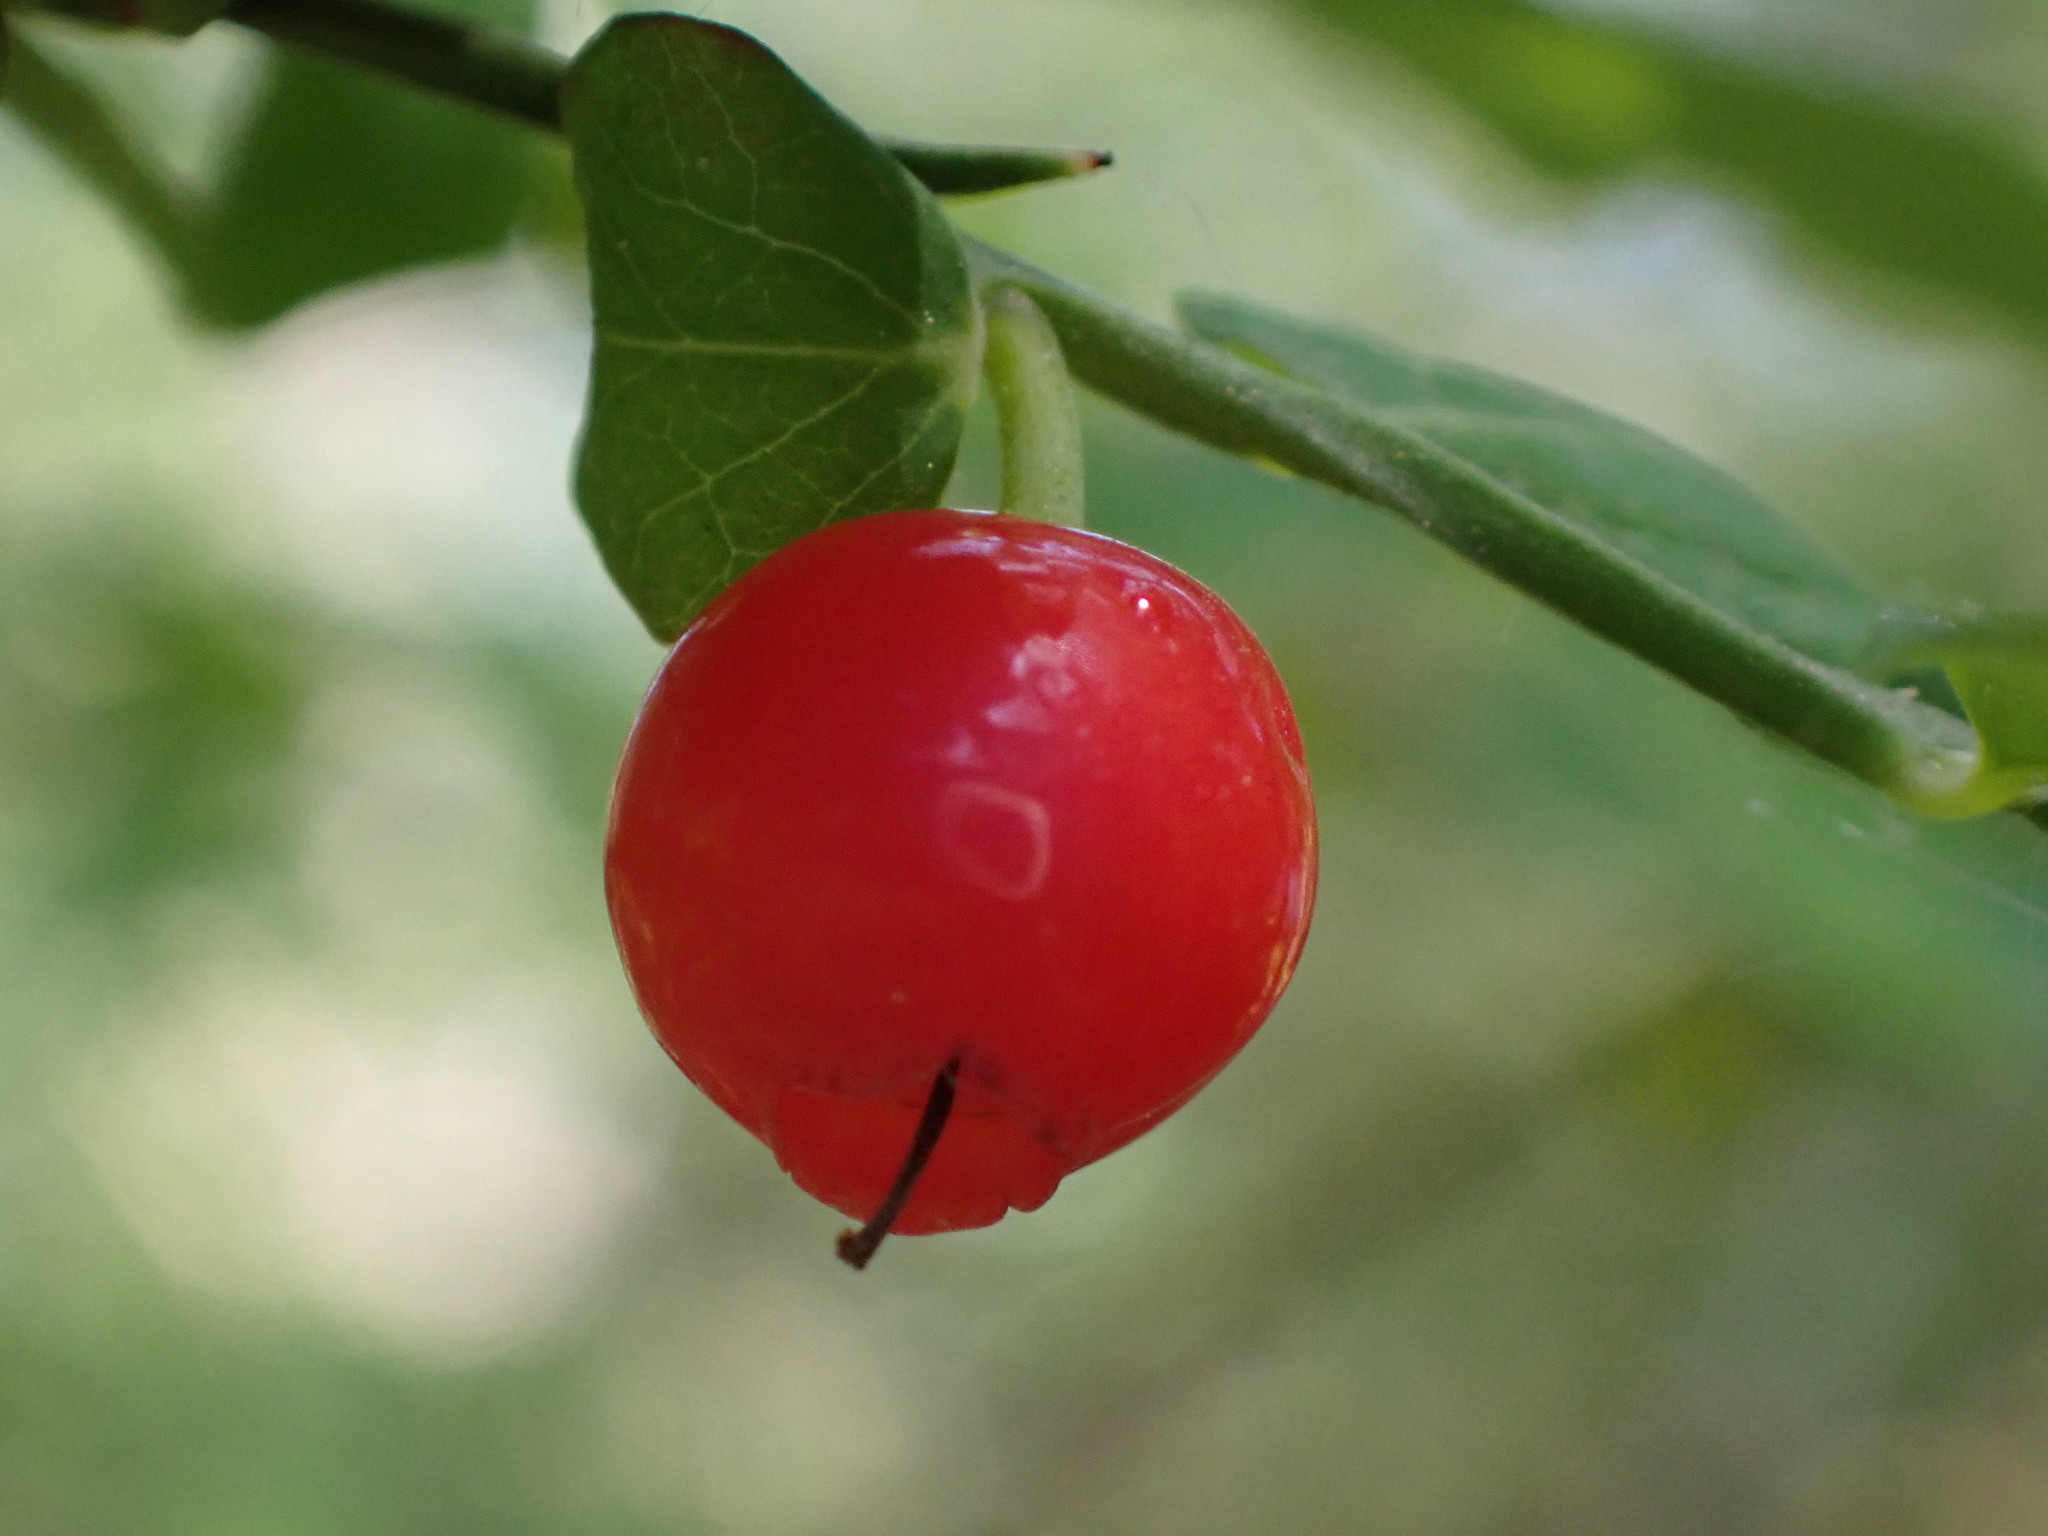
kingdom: Plantae
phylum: Tracheophyta
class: Magnoliopsida
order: Ericales
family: Ericaceae
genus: Vaccinium
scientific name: Vaccinium parvifolium
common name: Red-huckleberry
